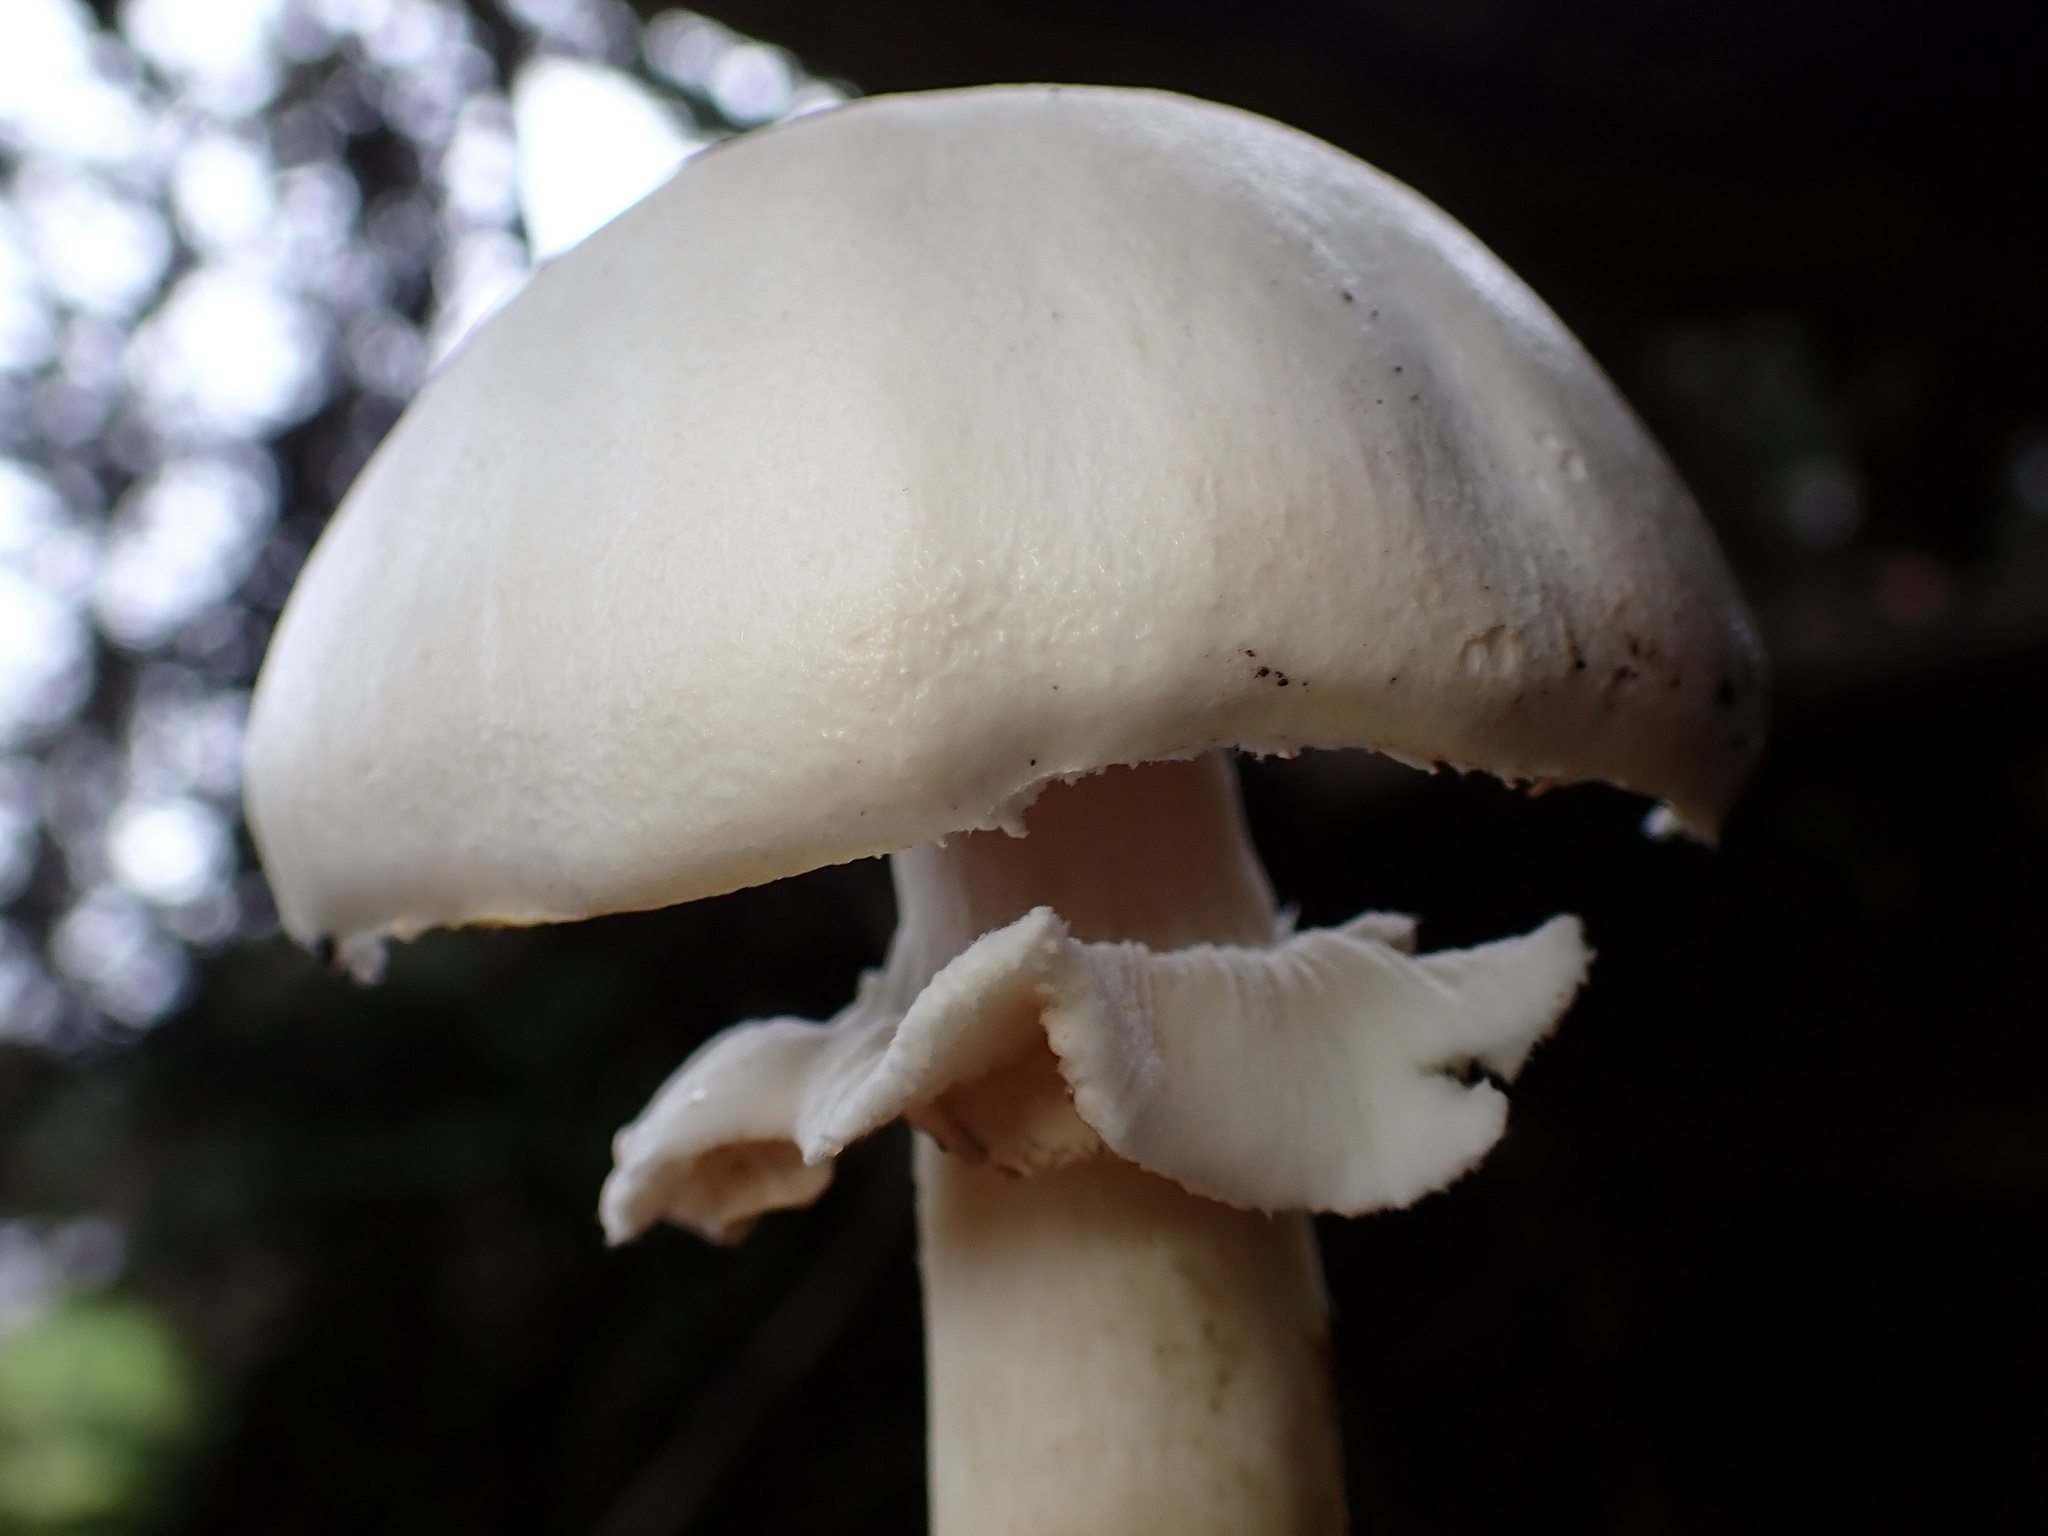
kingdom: Fungi
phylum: Basidiomycota
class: Agaricomycetes
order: Agaricales
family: Agaricaceae
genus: Agaricus
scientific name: Agaricus xanthodermus
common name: Yellow stainer
